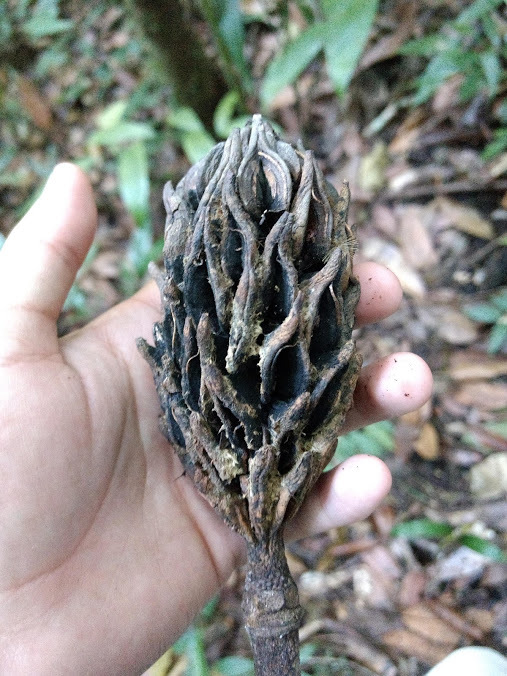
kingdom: Plantae
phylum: Tracheophyta
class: Magnoliopsida
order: Magnoliales
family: Magnoliaceae
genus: Magnolia
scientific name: Magnolia mayae
